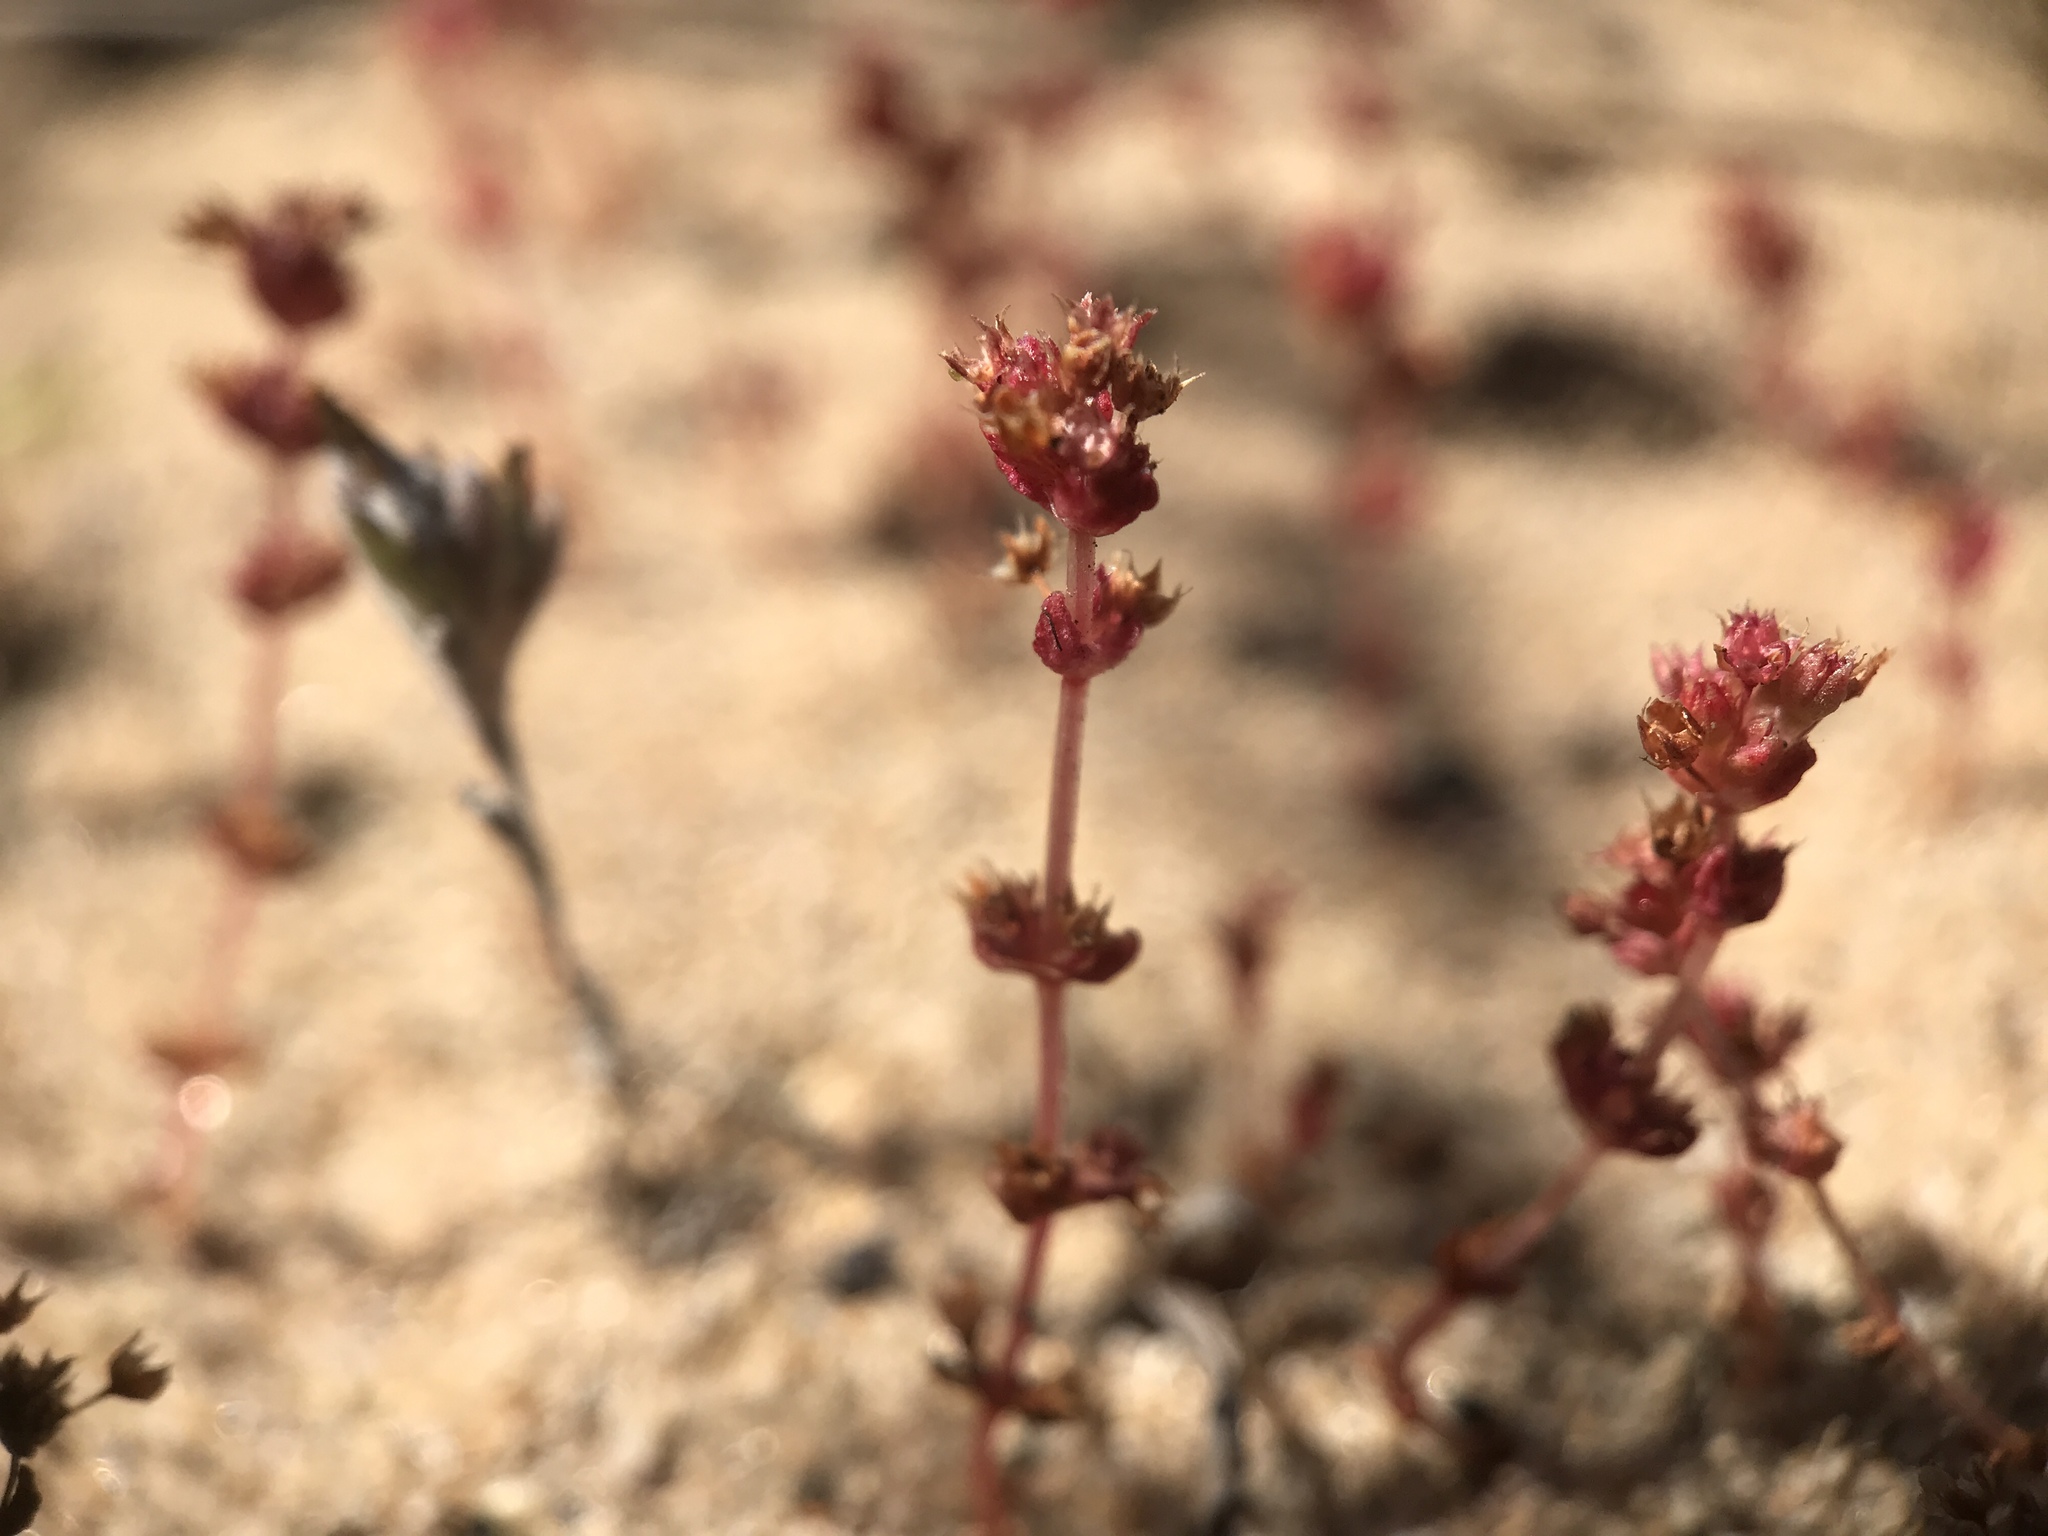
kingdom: Plantae
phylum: Tracheophyta
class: Magnoliopsida
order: Saxifragales
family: Crassulaceae
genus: Crassula
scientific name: Crassula connata
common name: Erect pygmyweed
